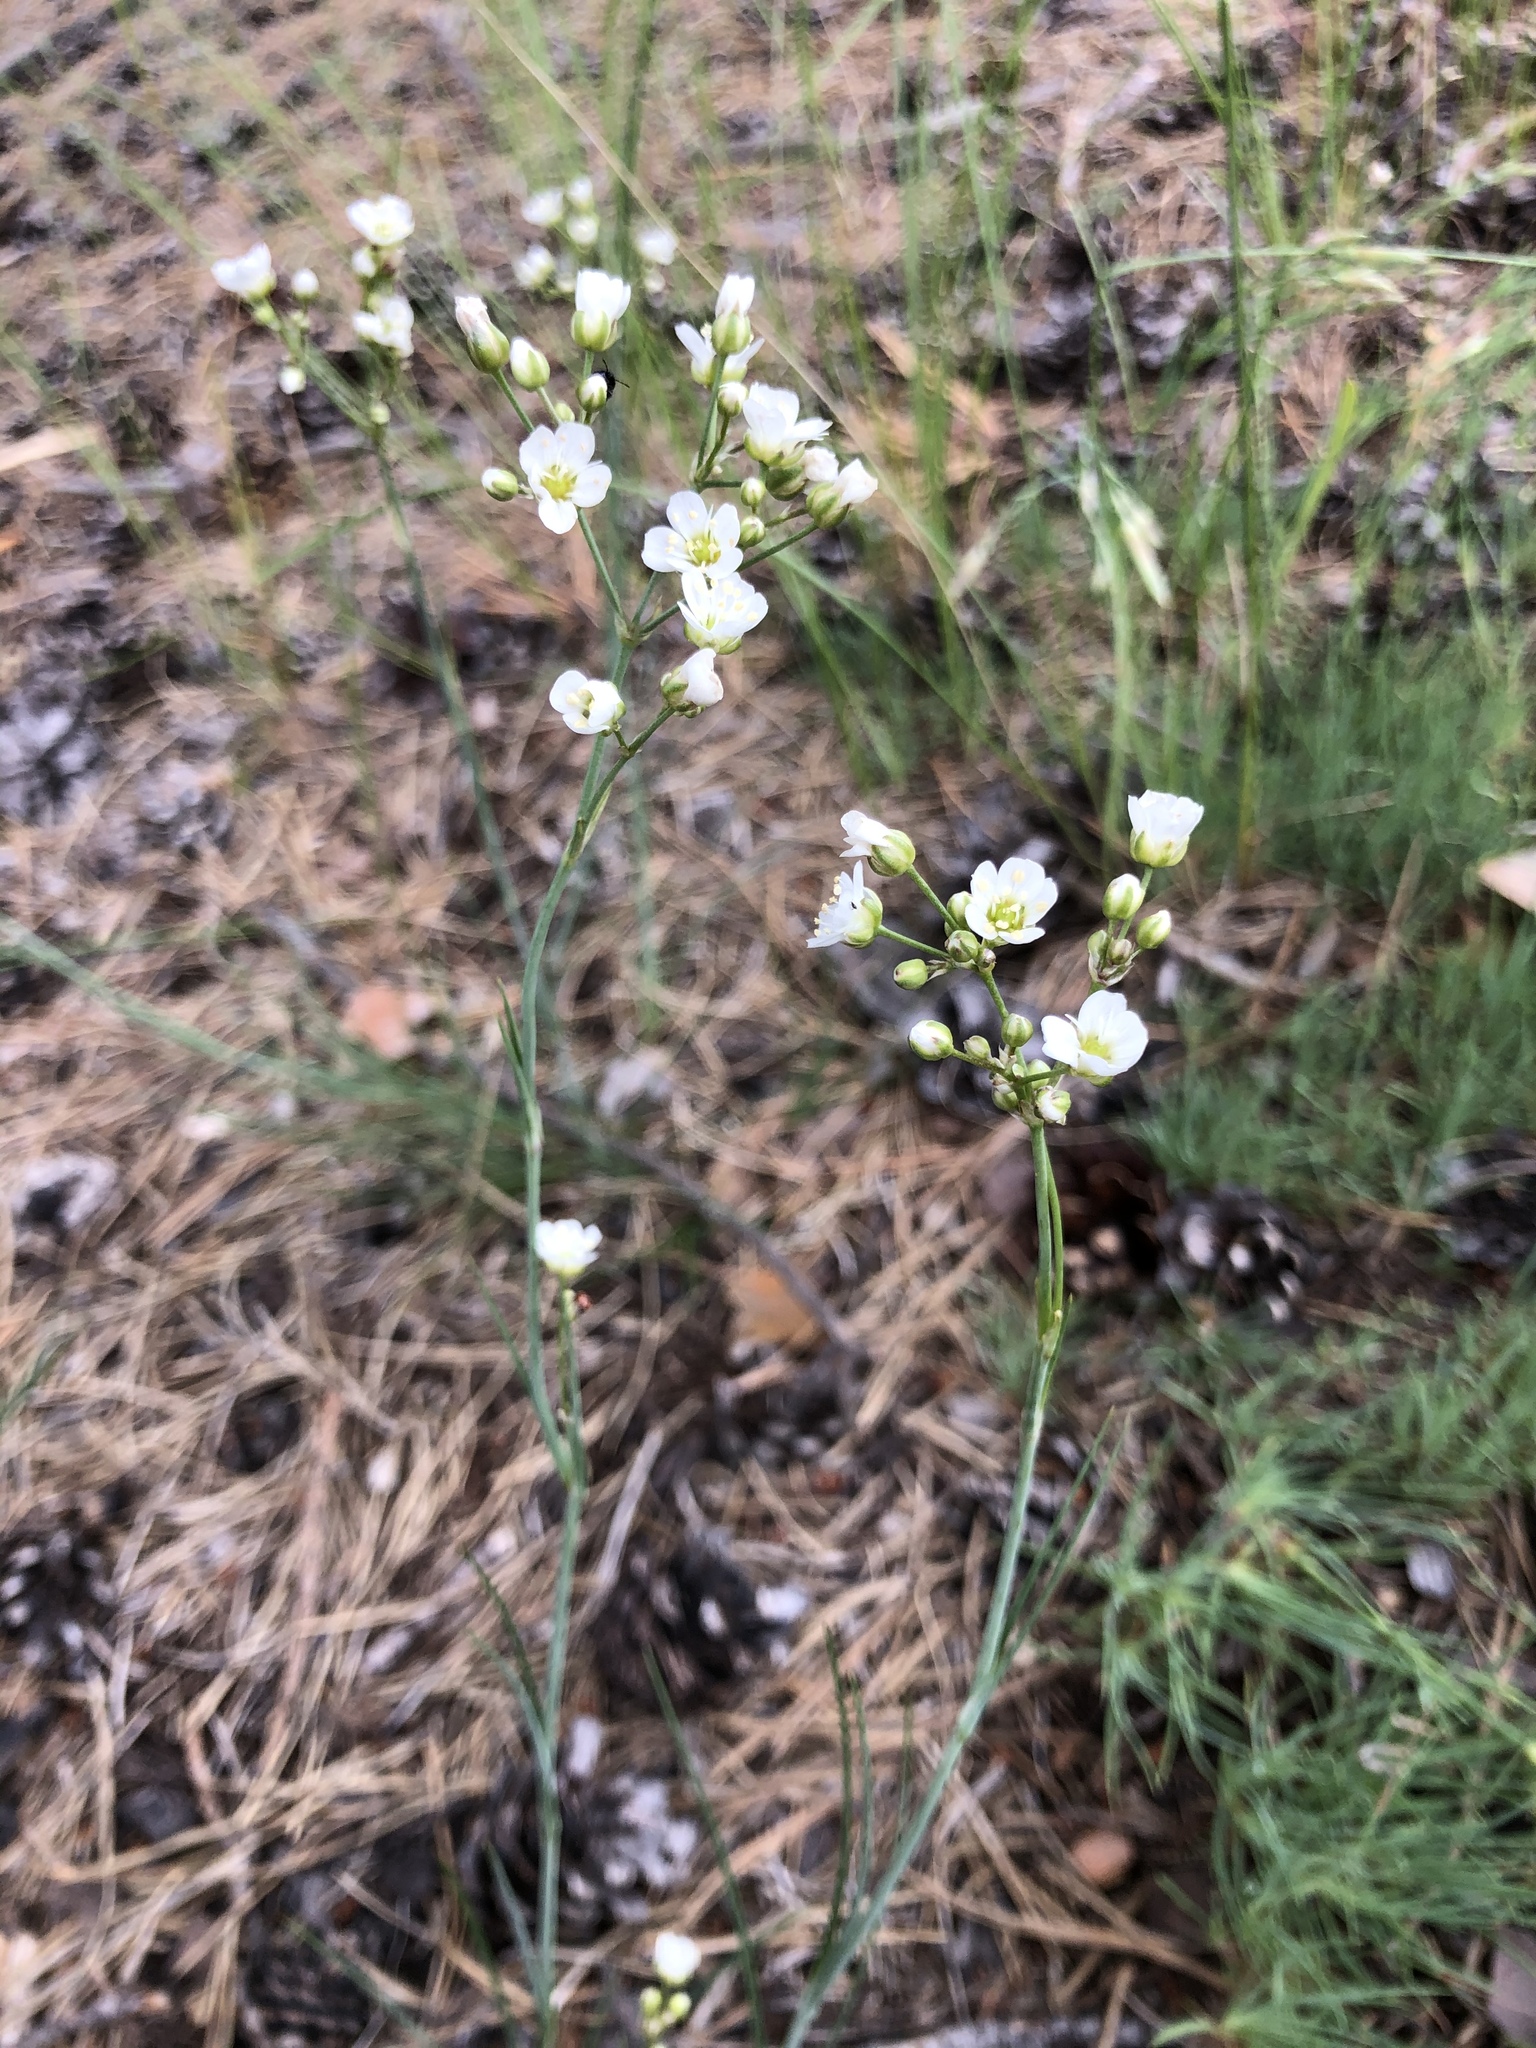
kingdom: Plantae
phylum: Tracheophyta
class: Magnoliopsida
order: Caryophyllales
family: Caryophyllaceae
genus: Eremogone
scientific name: Eremogone saxatilis
